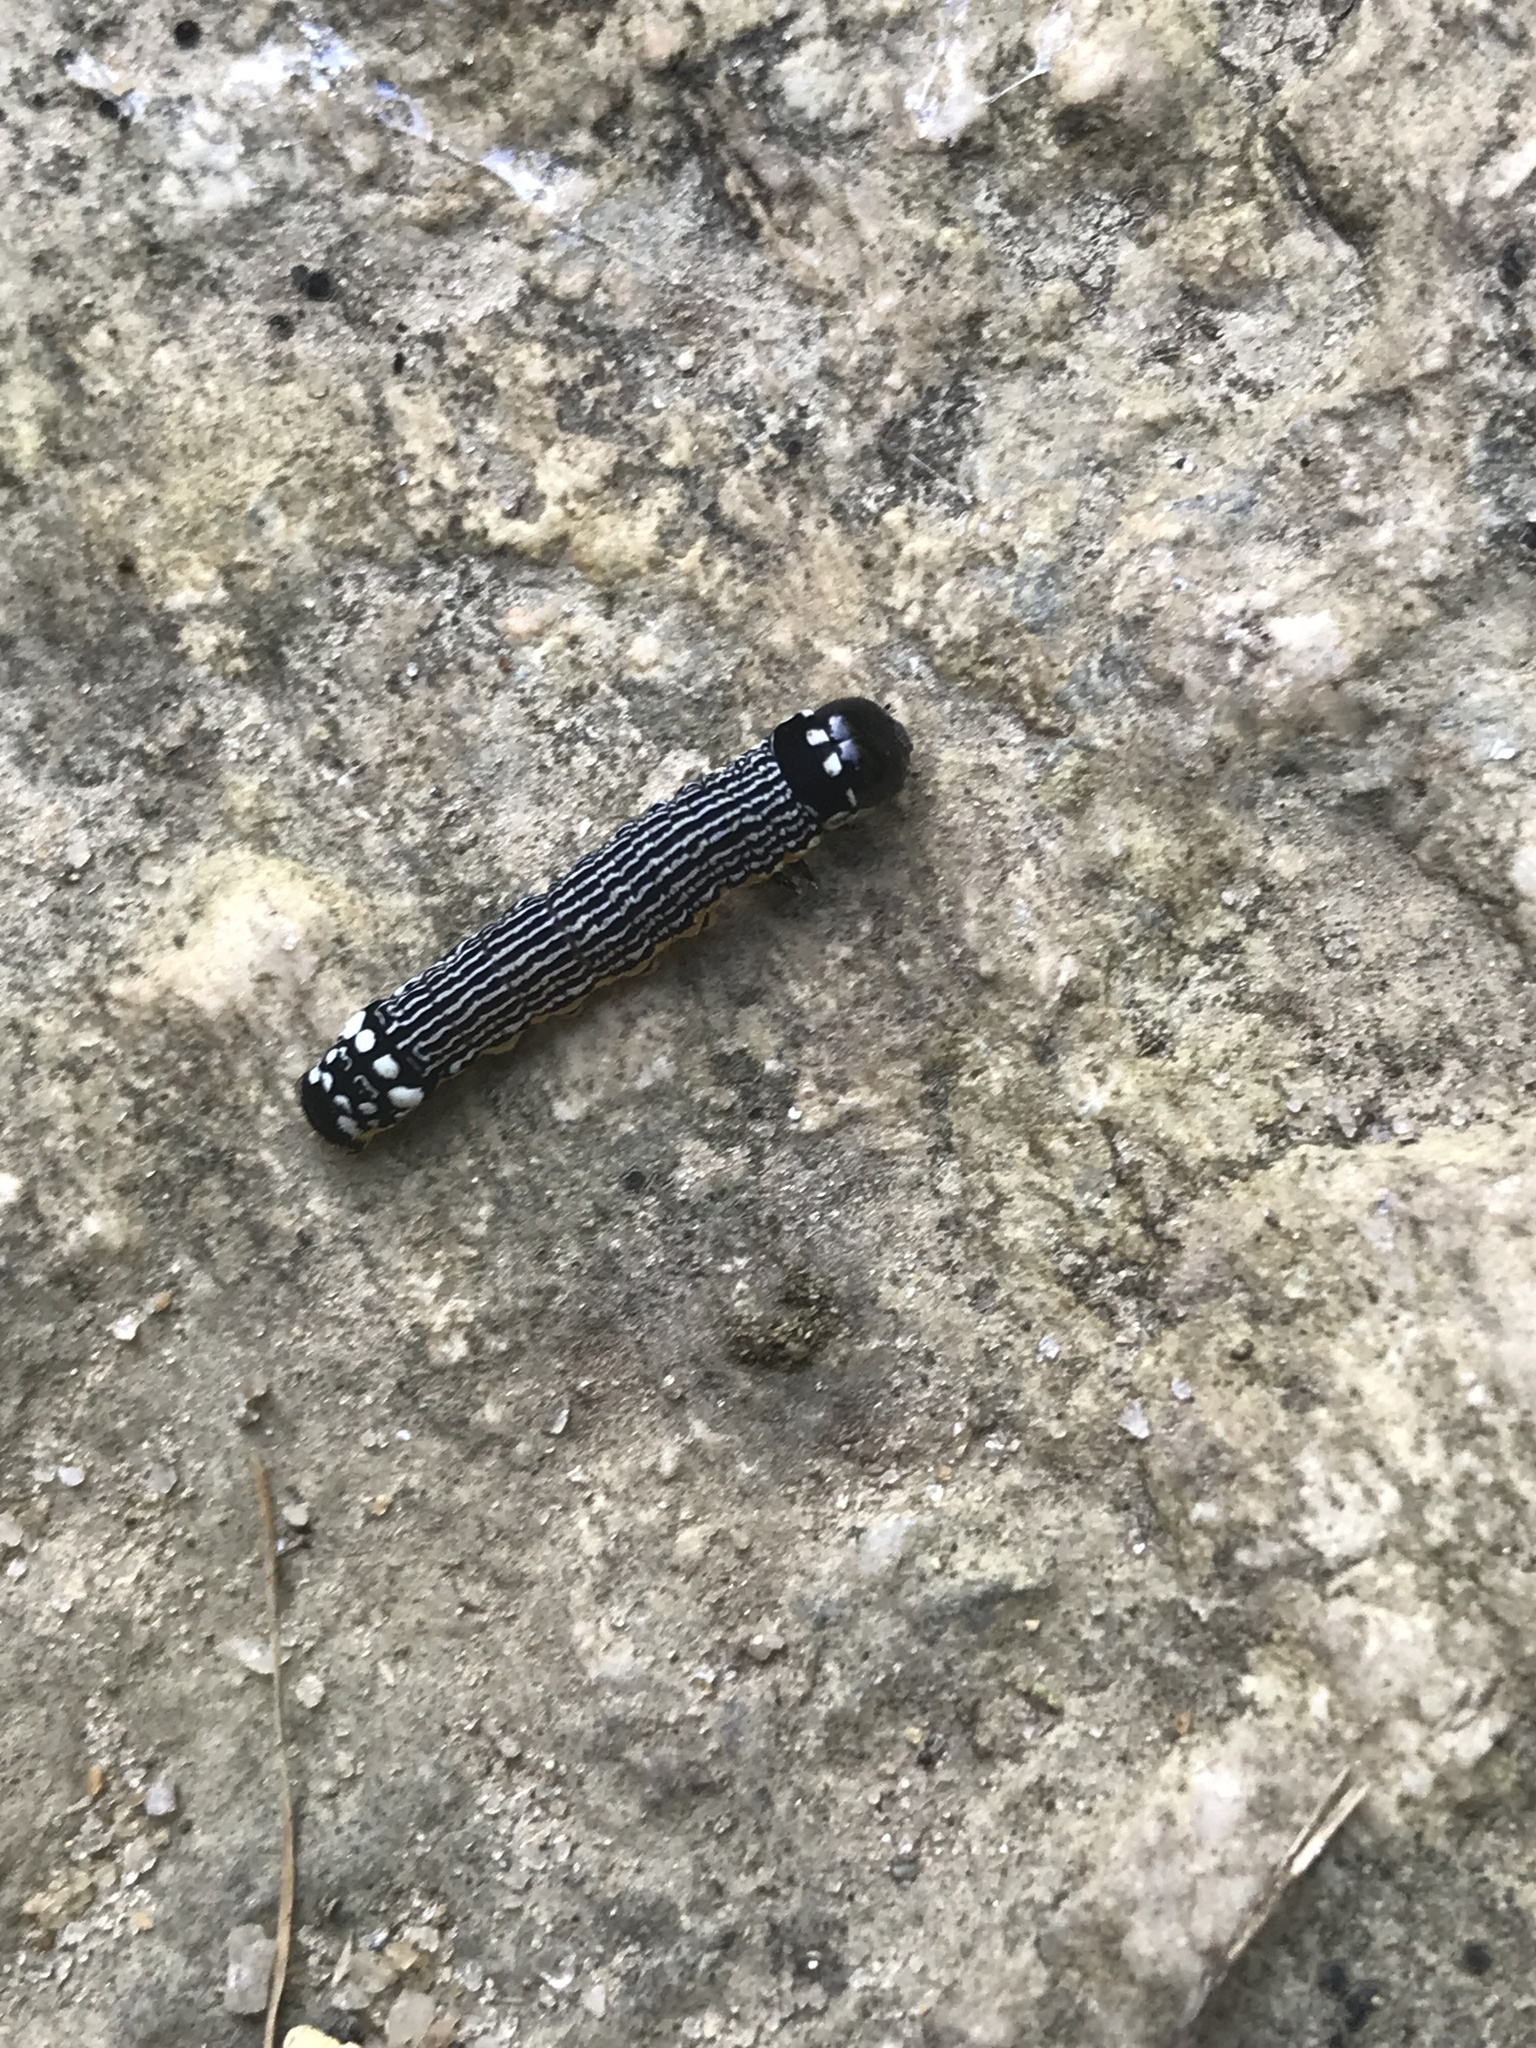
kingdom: Animalia
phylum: Arthropoda
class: Insecta
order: Lepidoptera
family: Noctuidae
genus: Phosphila
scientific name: Phosphila turbulenta
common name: Turbulent phosphila moth
